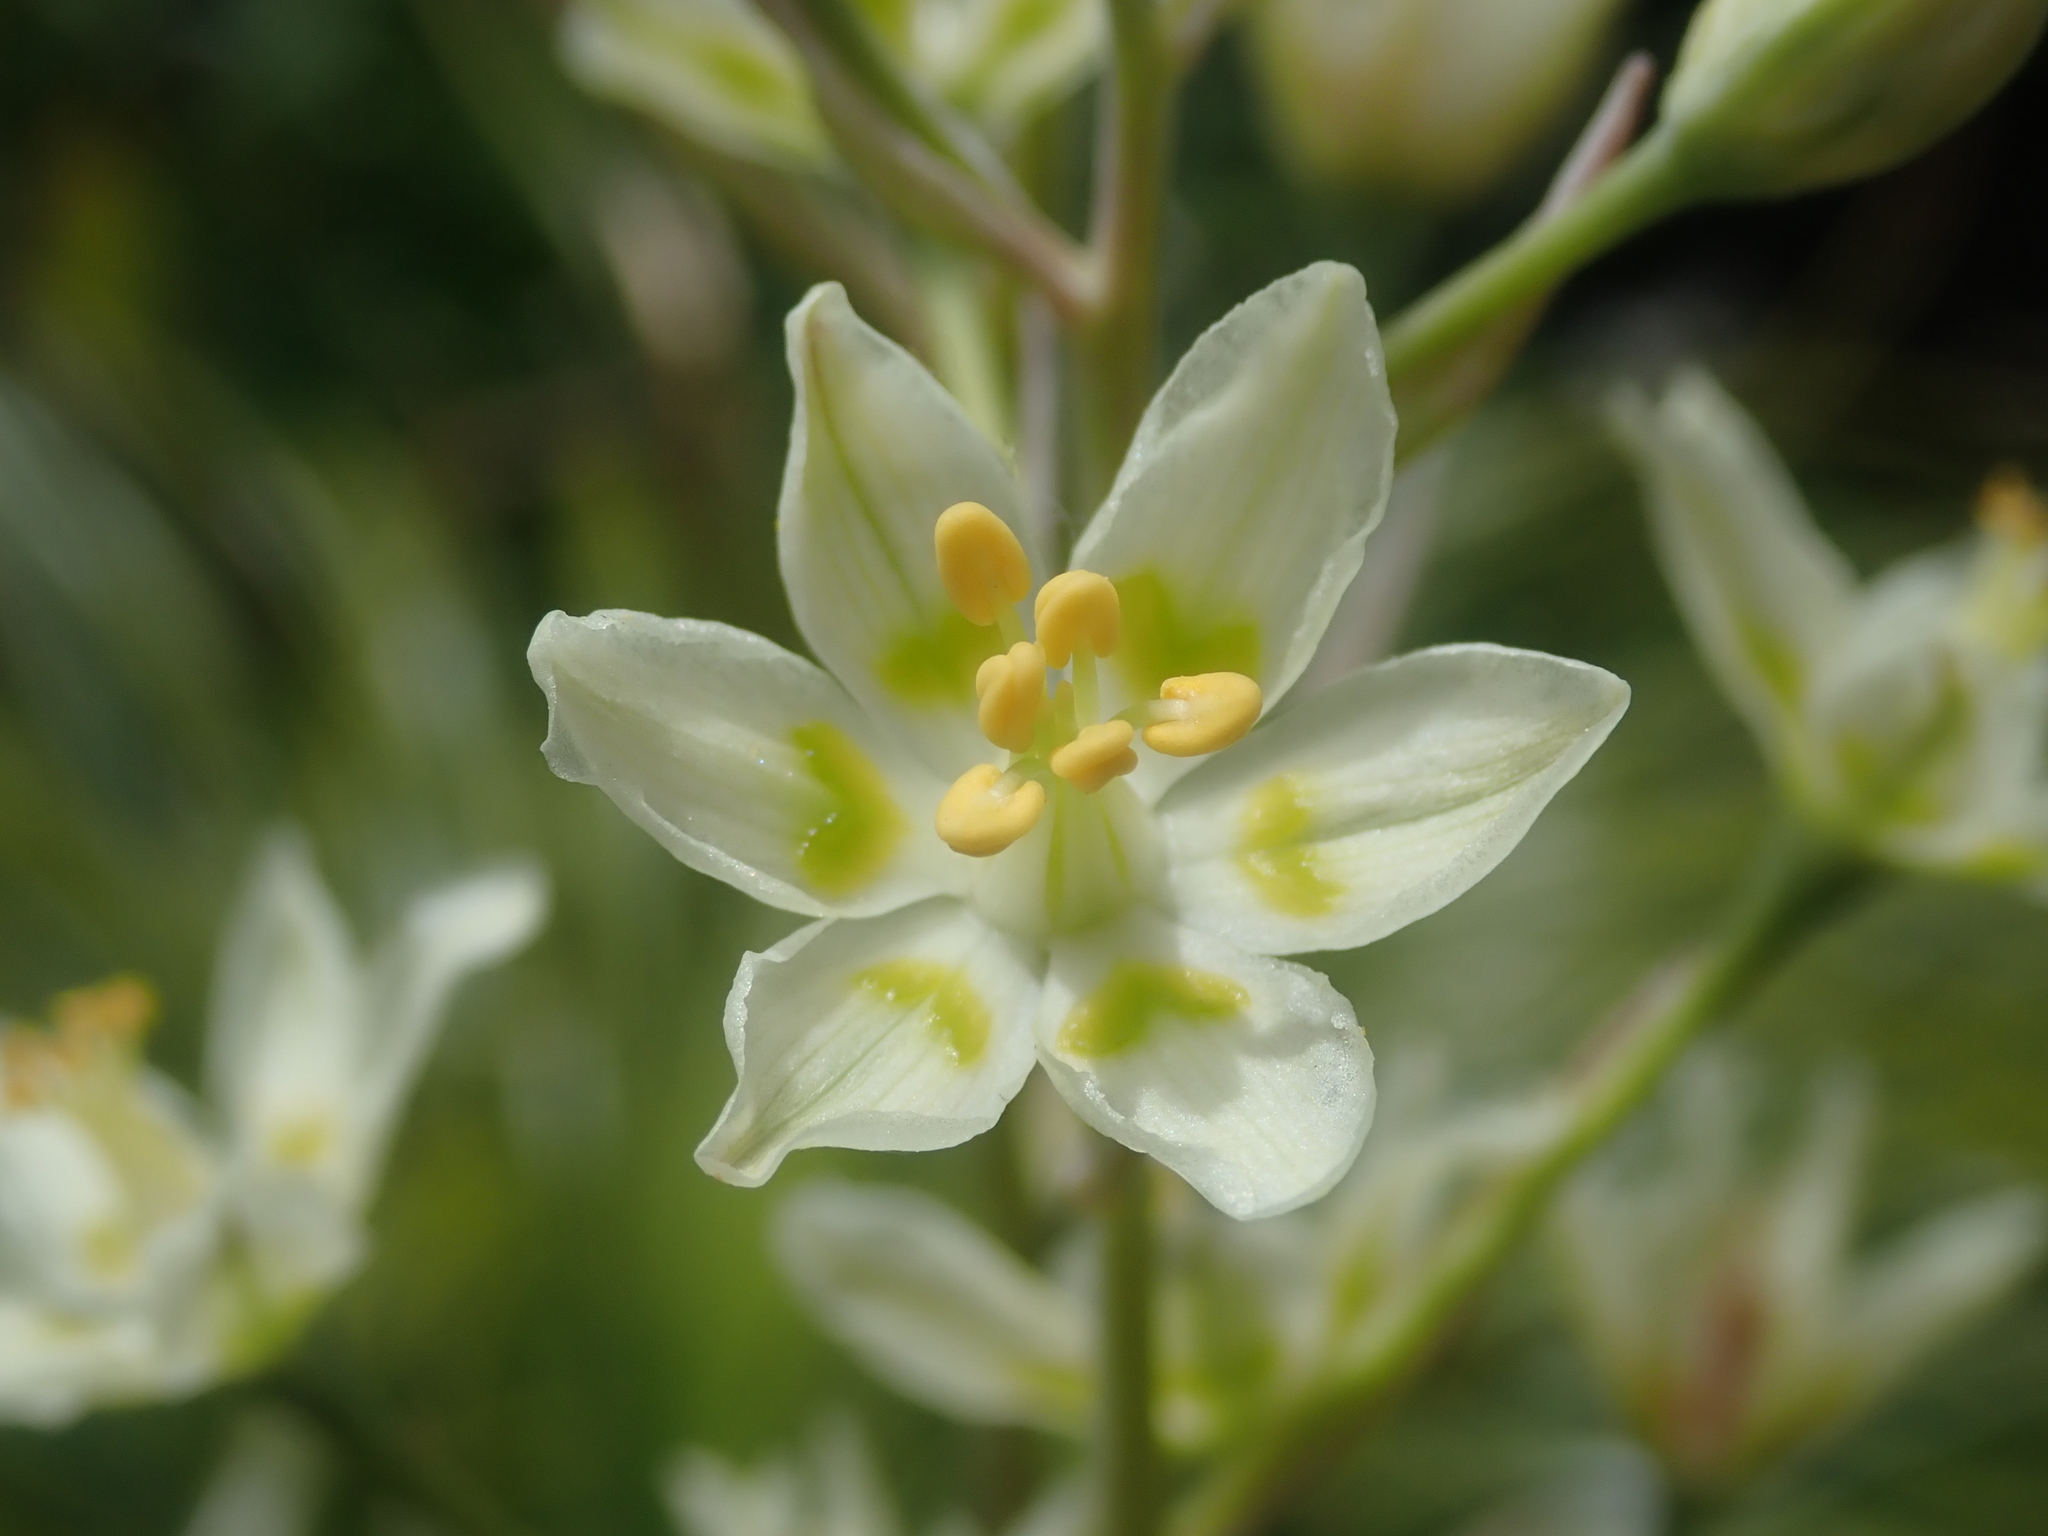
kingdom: Plantae
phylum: Tracheophyta
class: Liliopsida
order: Liliales
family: Melanthiaceae
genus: Anticlea
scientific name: Anticlea elegans
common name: Mountain death camas
